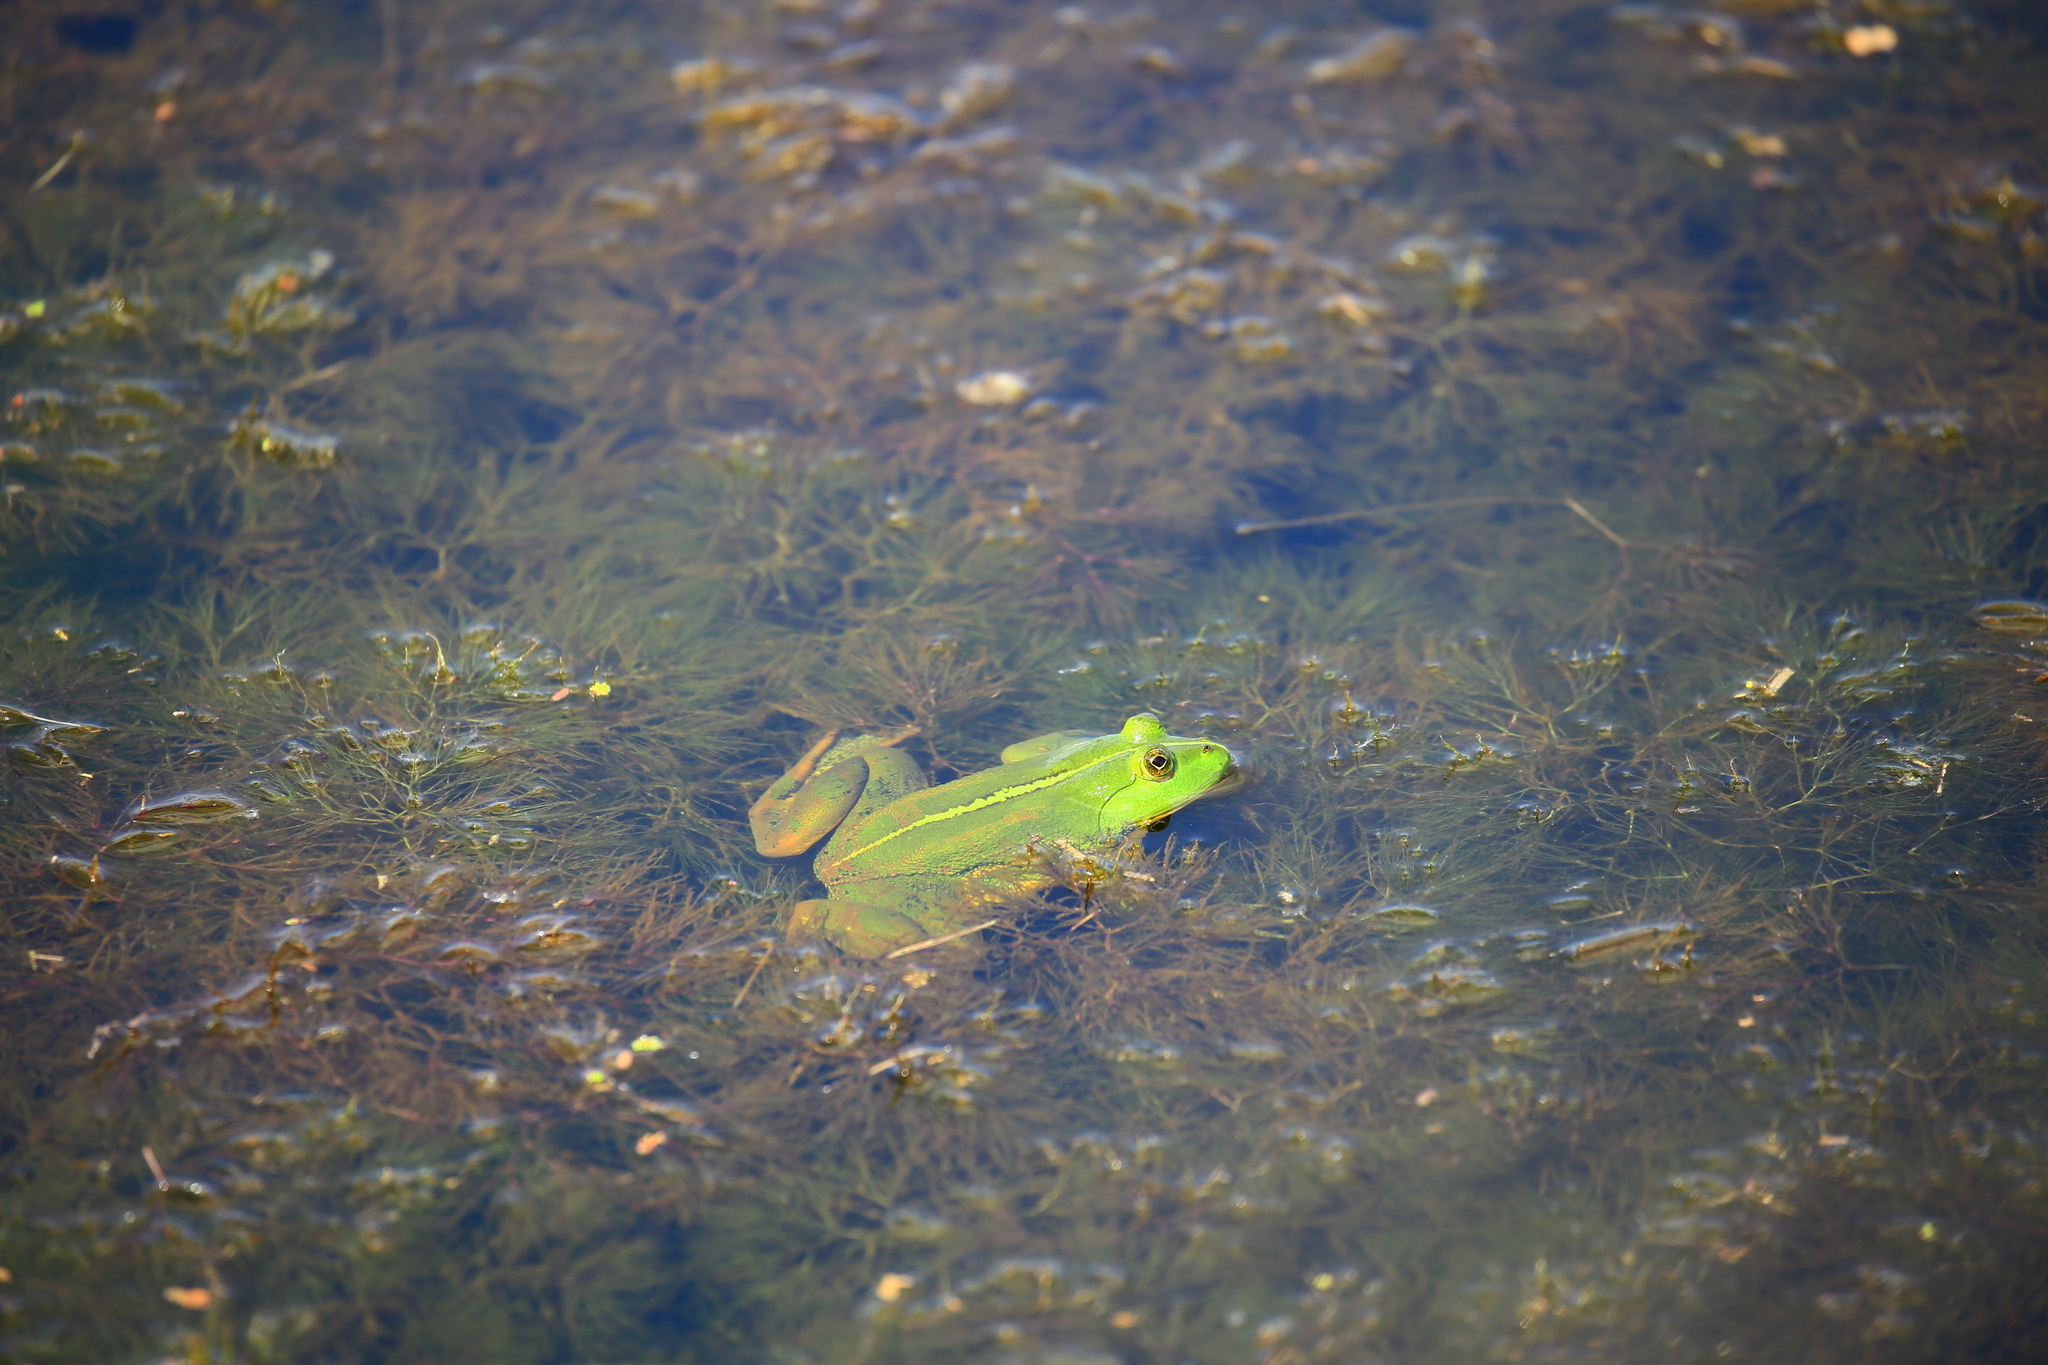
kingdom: Animalia
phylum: Chordata
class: Amphibia
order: Anura
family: Dicroglossidae
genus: Euphlyctis
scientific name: Euphlyctis hexadactylus
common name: Indian green frog
